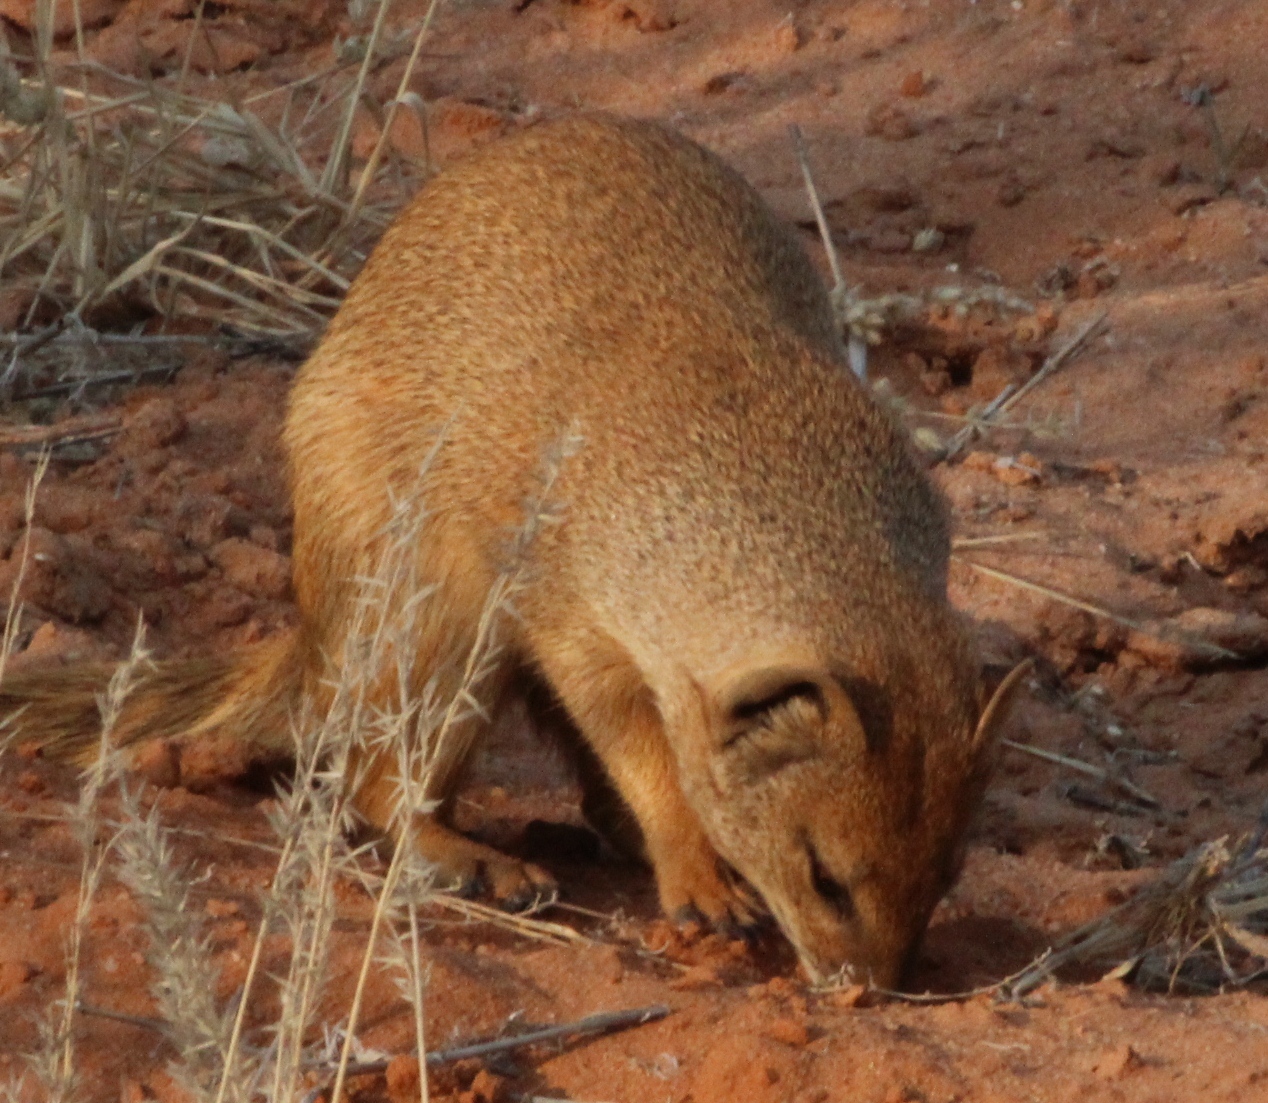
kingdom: Animalia
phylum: Chordata
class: Mammalia
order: Carnivora
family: Herpestidae
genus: Cynictis
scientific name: Cynictis penicillata
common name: Yellow mongoose
